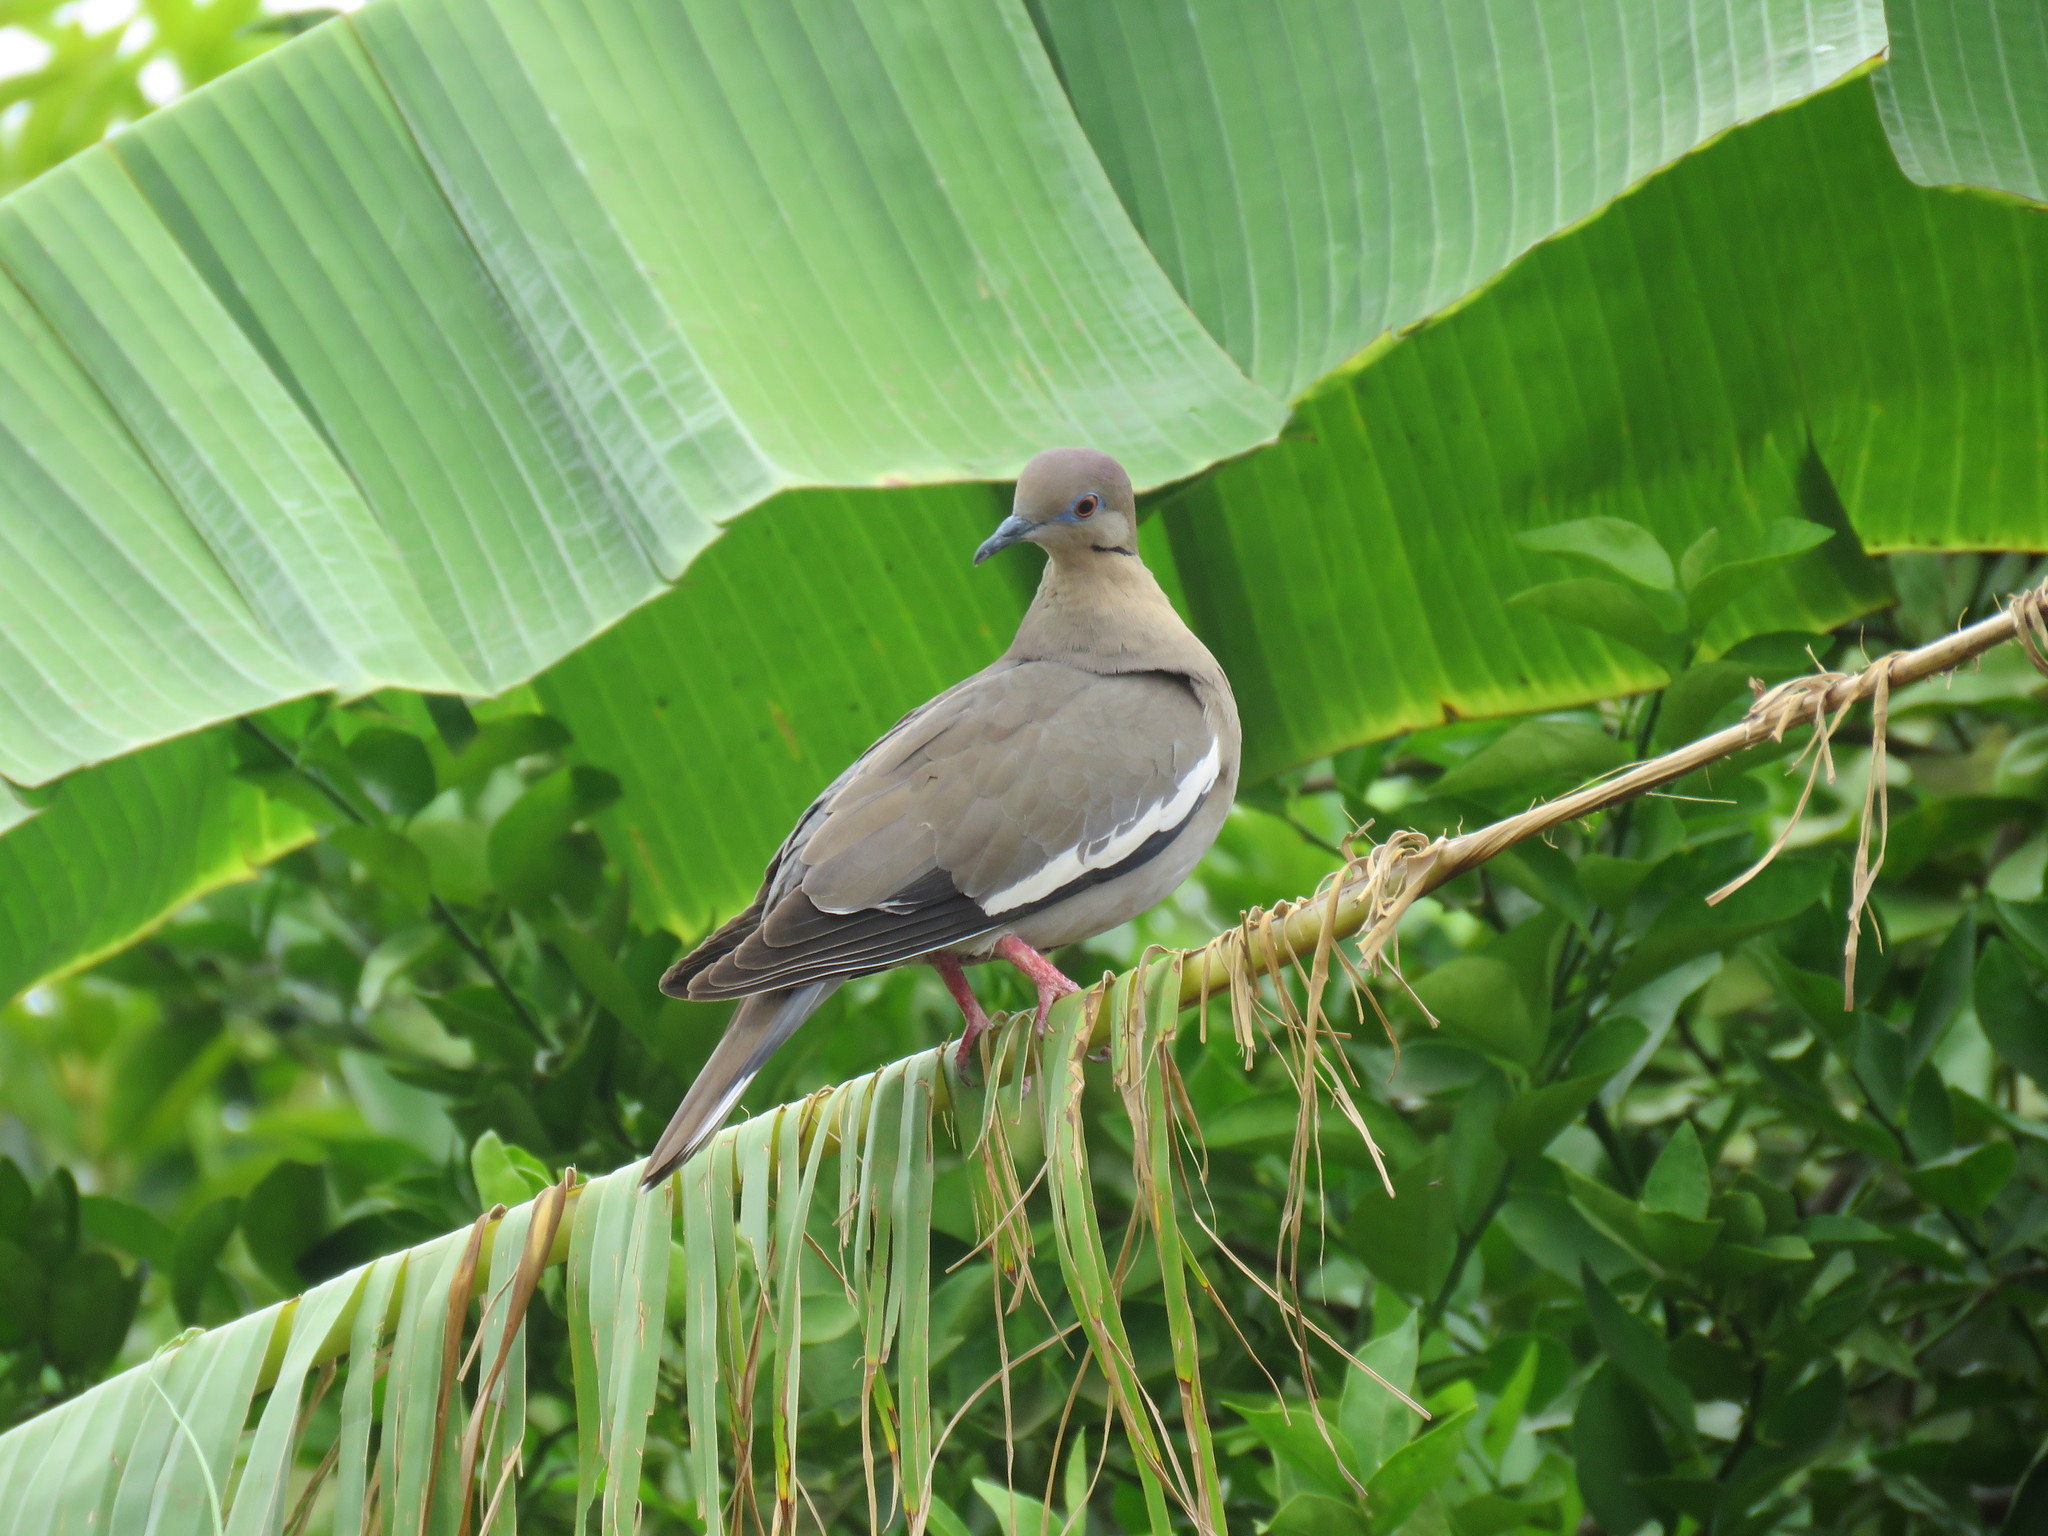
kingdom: Animalia
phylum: Chordata
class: Aves
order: Columbiformes
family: Columbidae
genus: Zenaida
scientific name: Zenaida asiatica
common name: White-winged dove
